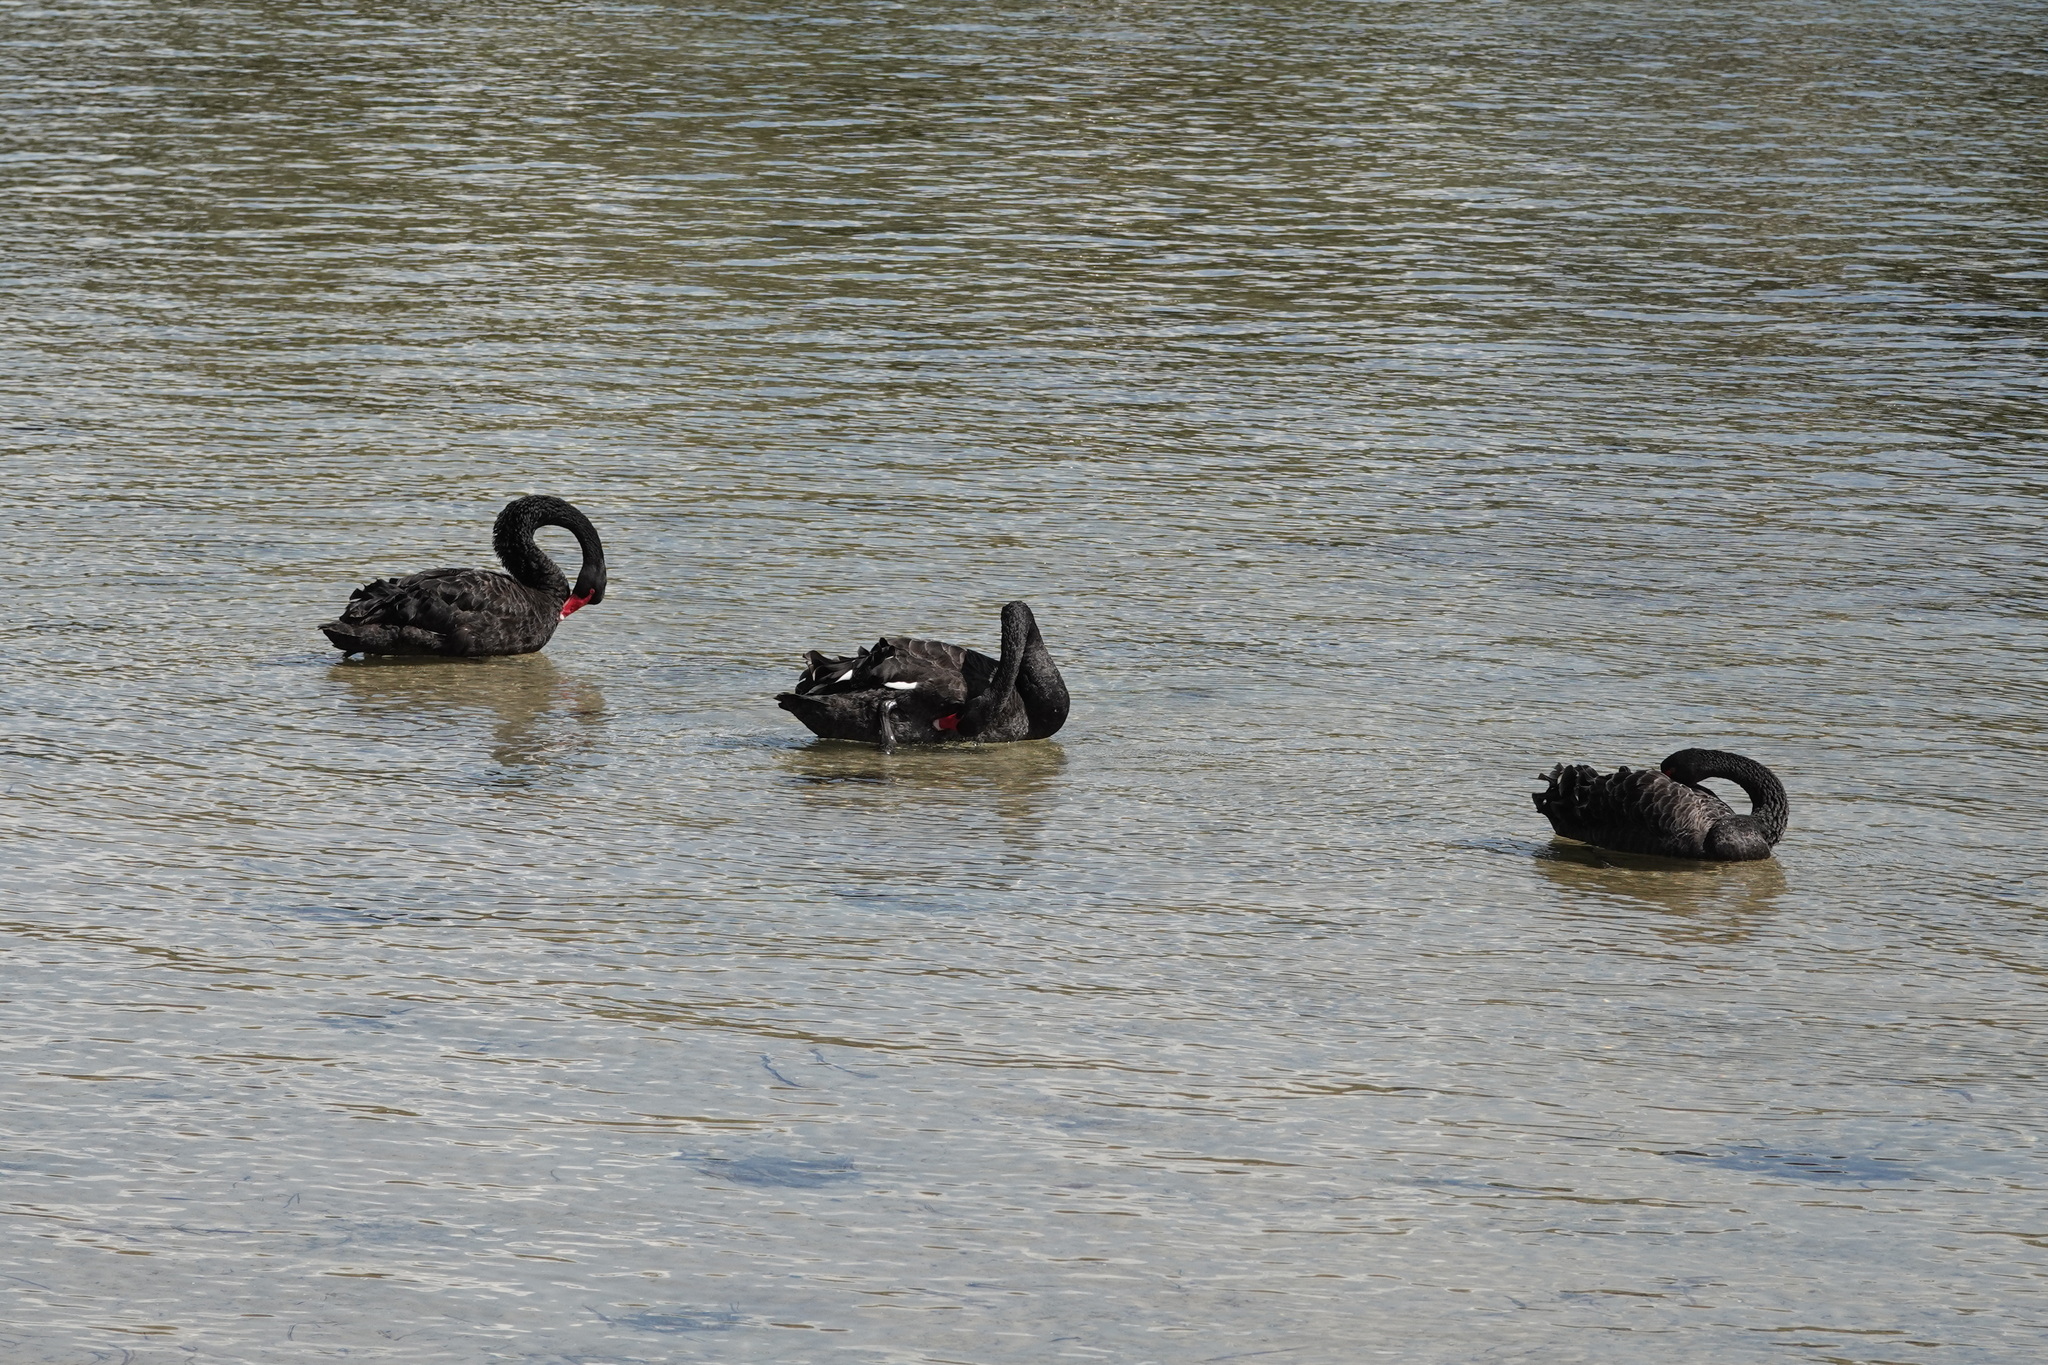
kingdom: Animalia
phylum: Chordata
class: Aves
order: Anseriformes
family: Anatidae
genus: Cygnus
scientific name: Cygnus atratus
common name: Black swan
